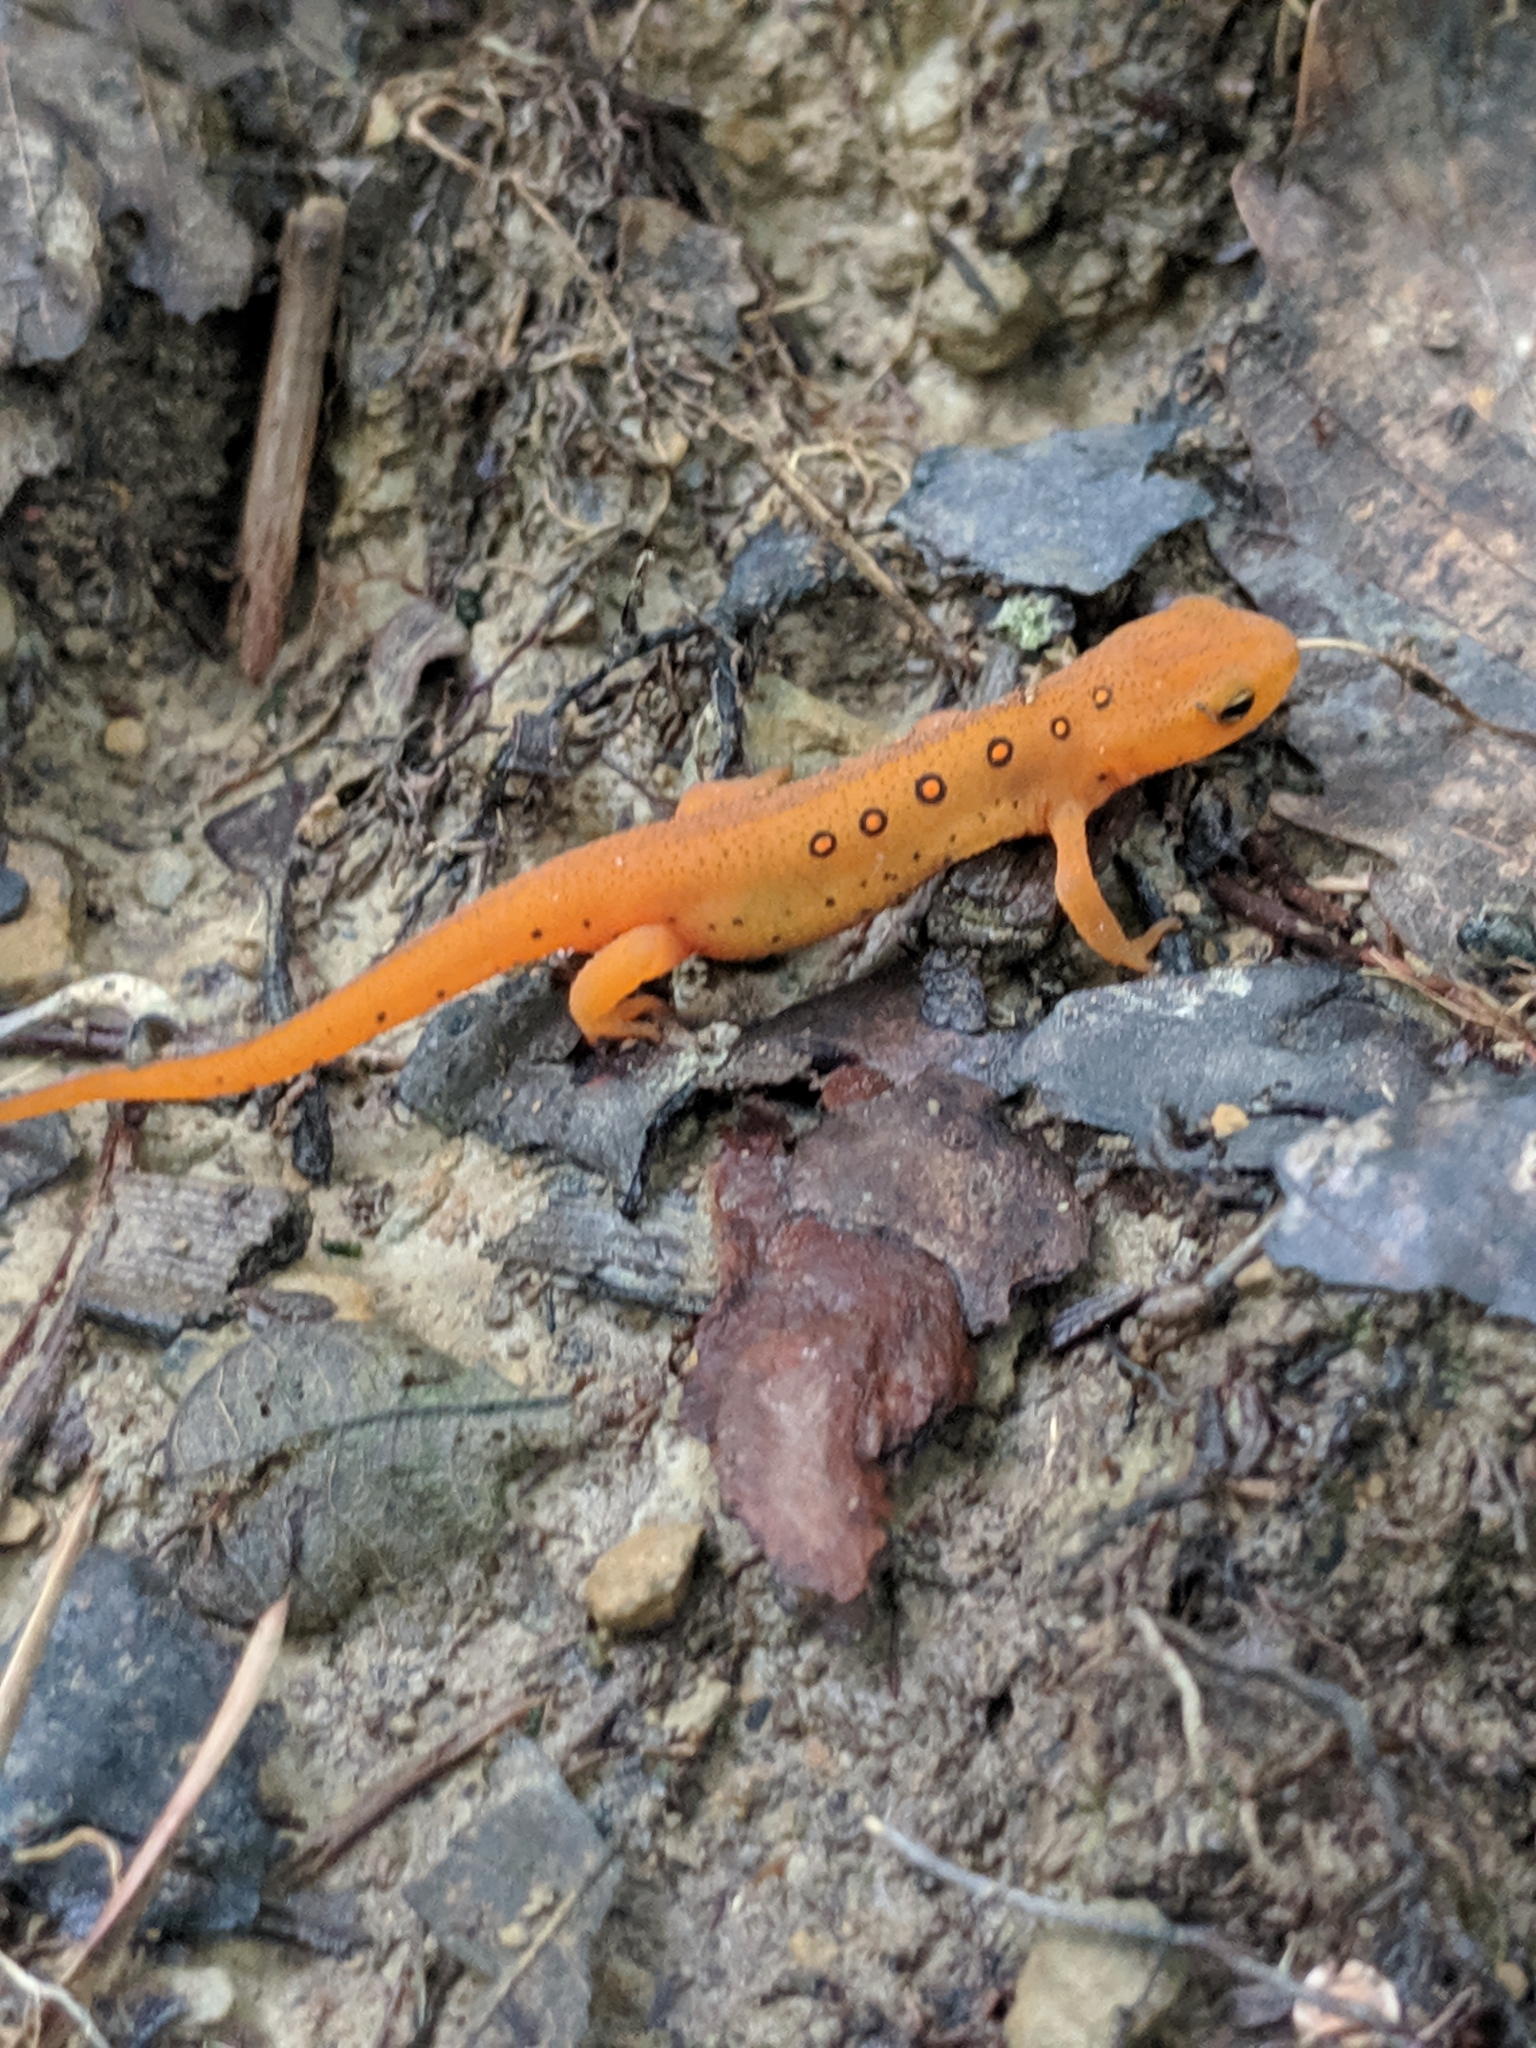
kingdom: Animalia
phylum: Chordata
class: Amphibia
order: Caudata
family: Salamandridae
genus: Notophthalmus
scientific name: Notophthalmus viridescens
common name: Eastern newt
